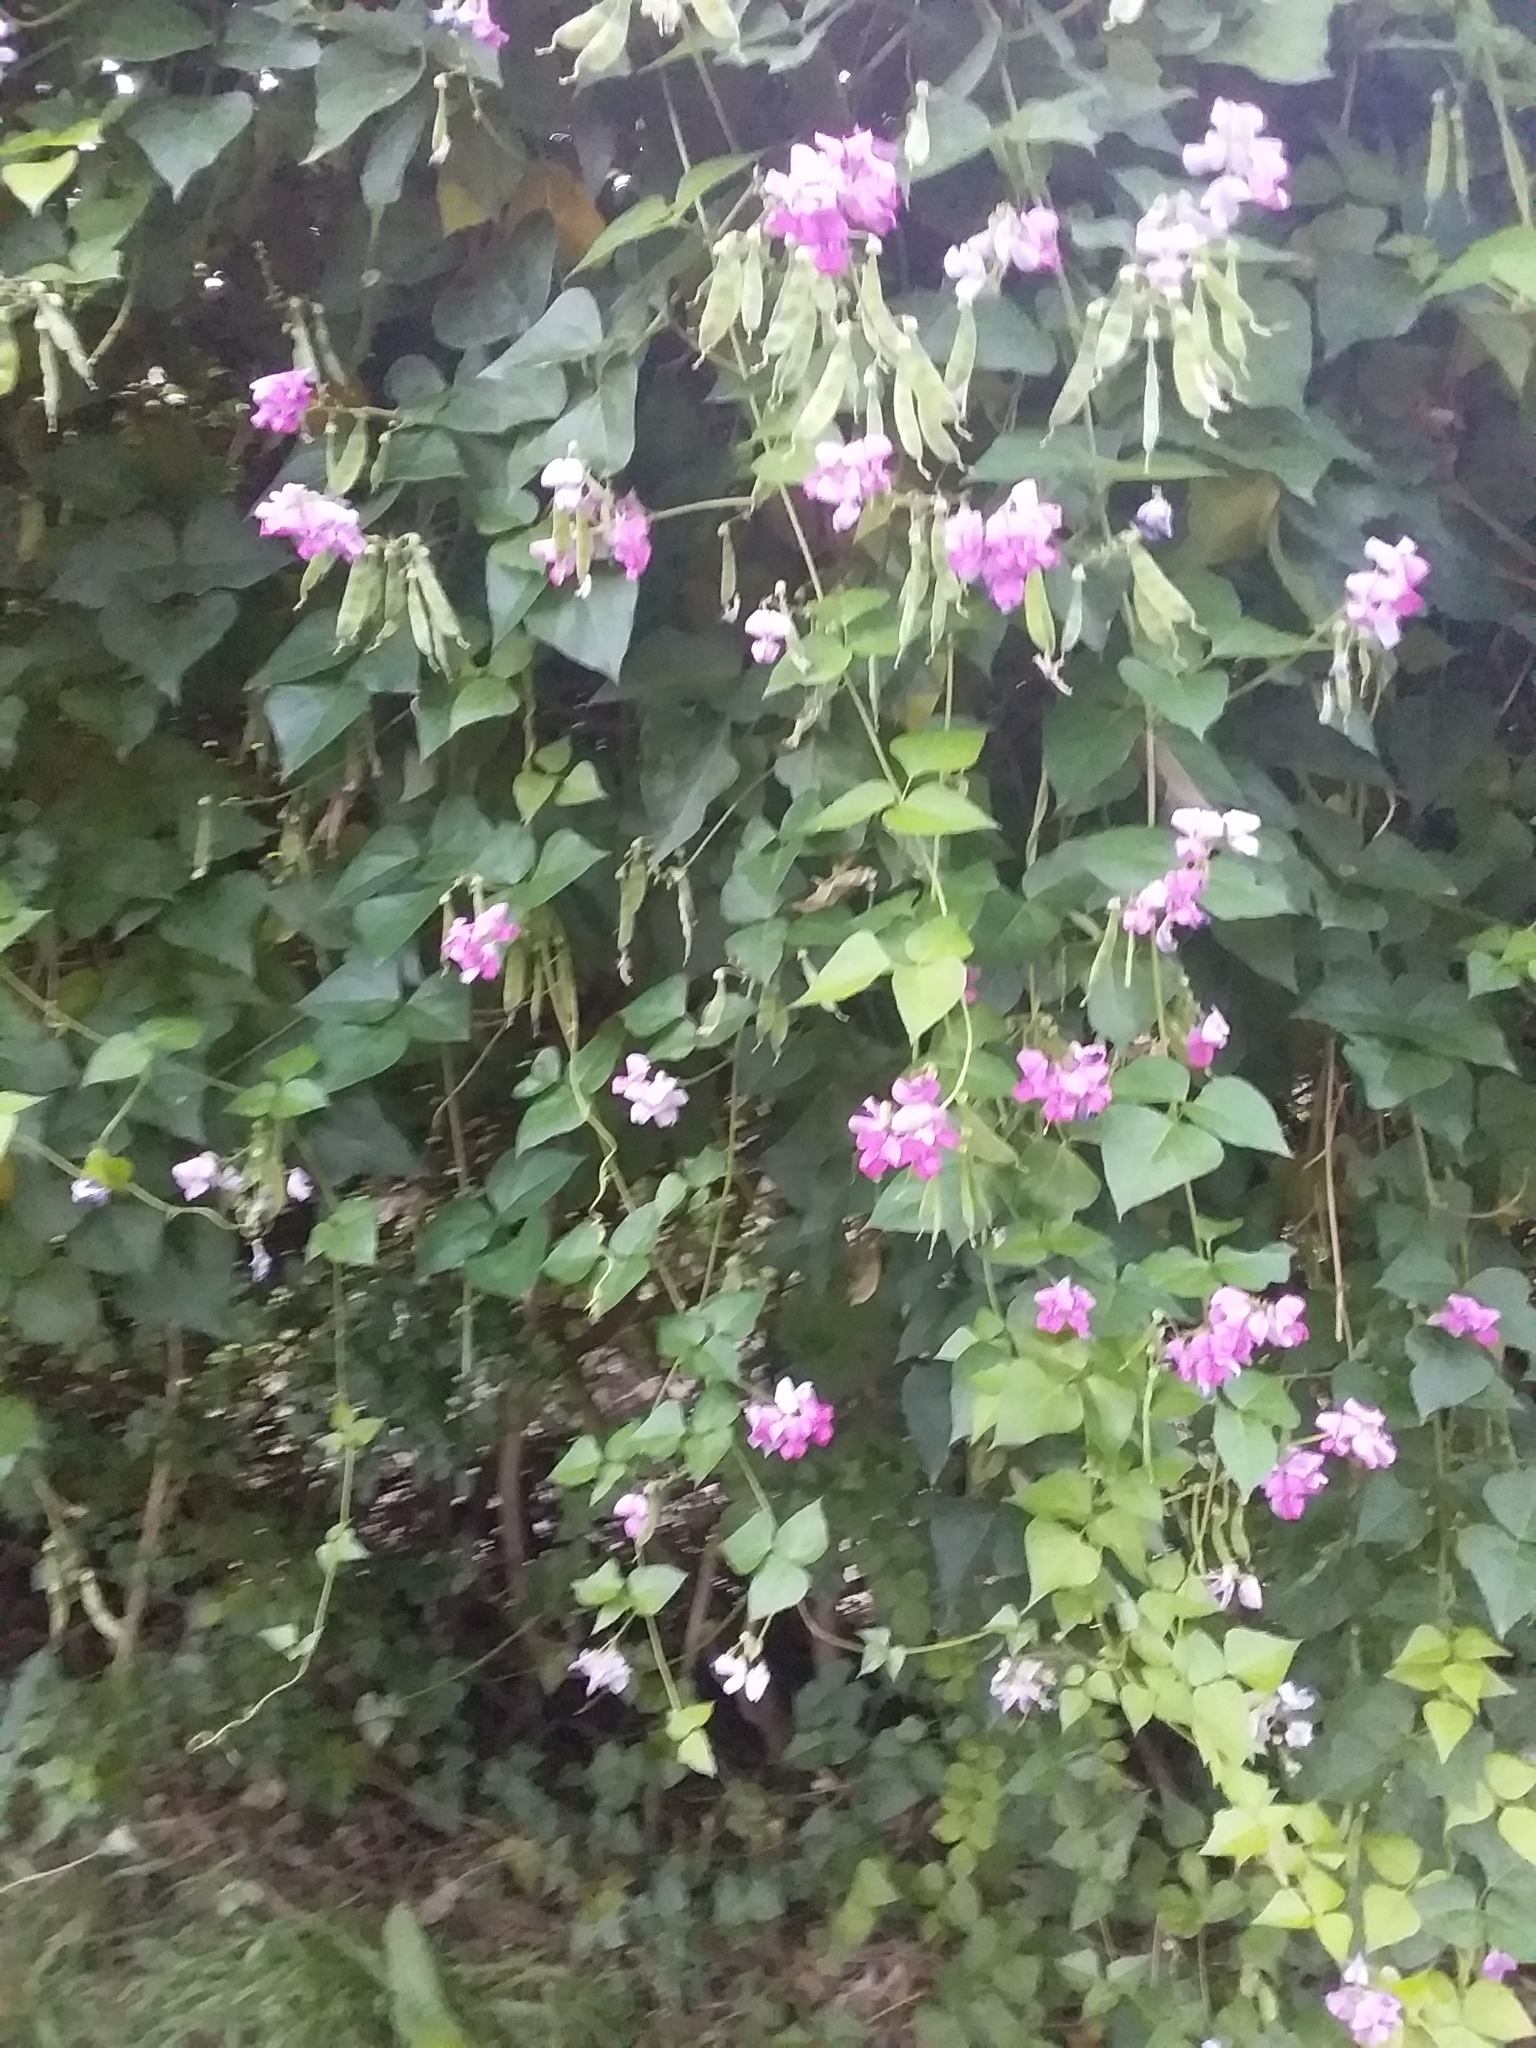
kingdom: Plantae
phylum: Tracheophyta
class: Magnoliopsida
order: Fabales
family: Fabaceae
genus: Dipogon
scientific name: Dipogon lignosus
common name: Okie bean
